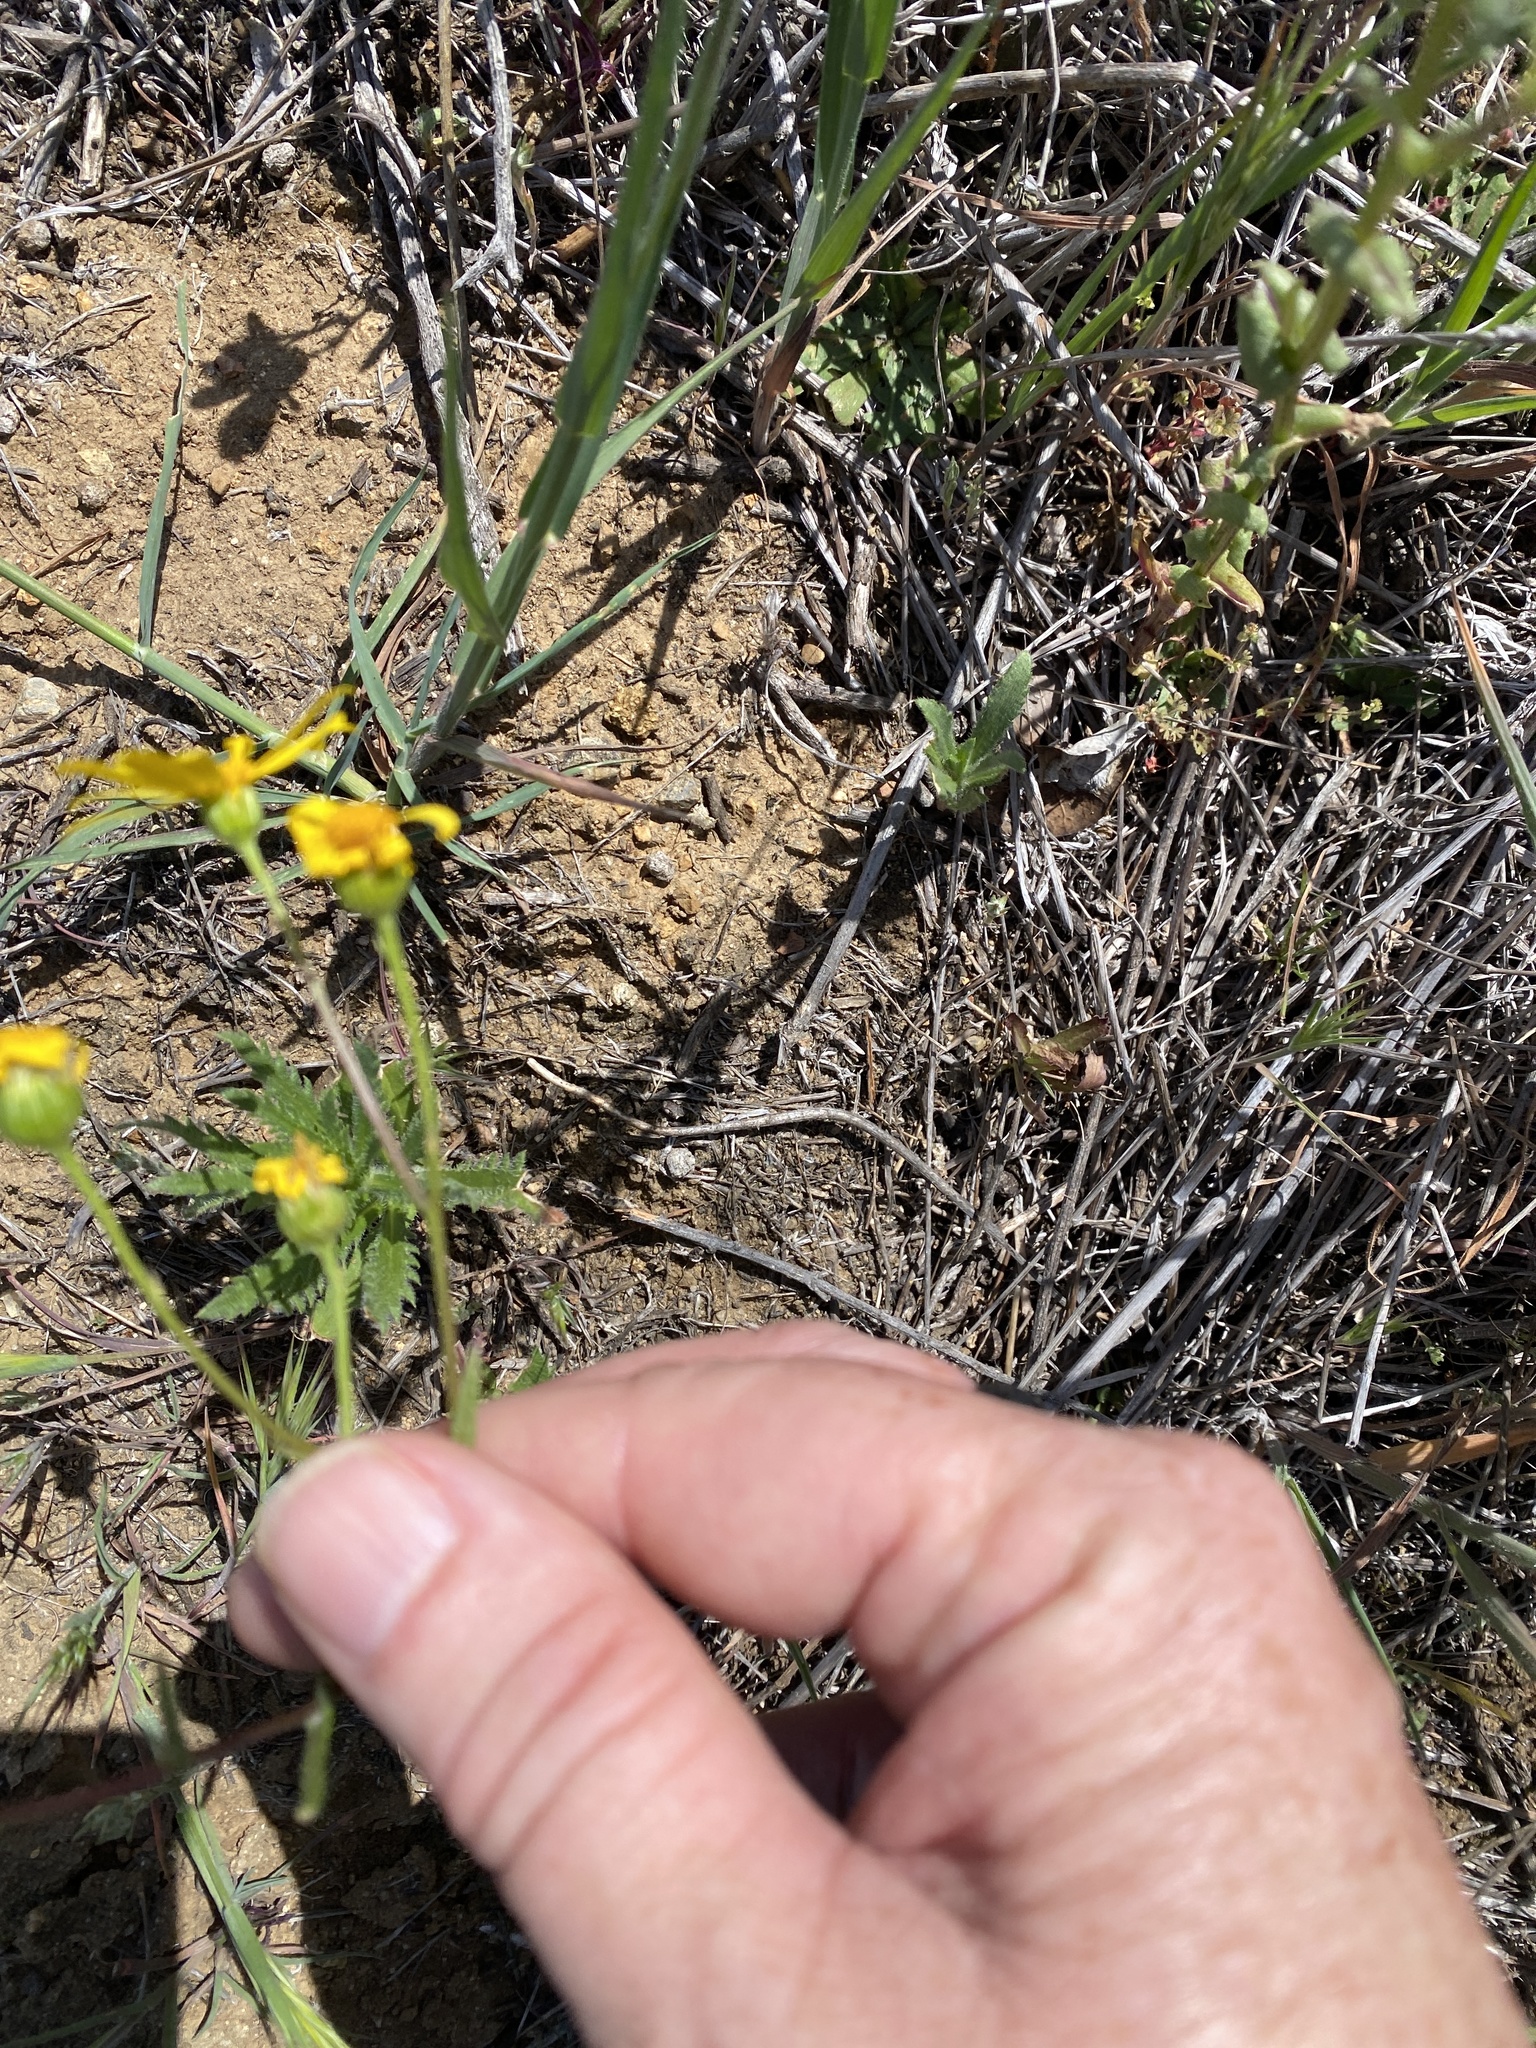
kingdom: Plantae
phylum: Tracheophyta
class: Magnoliopsida
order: Asterales
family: Asteraceae
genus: Senecio
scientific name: Senecio californicus
